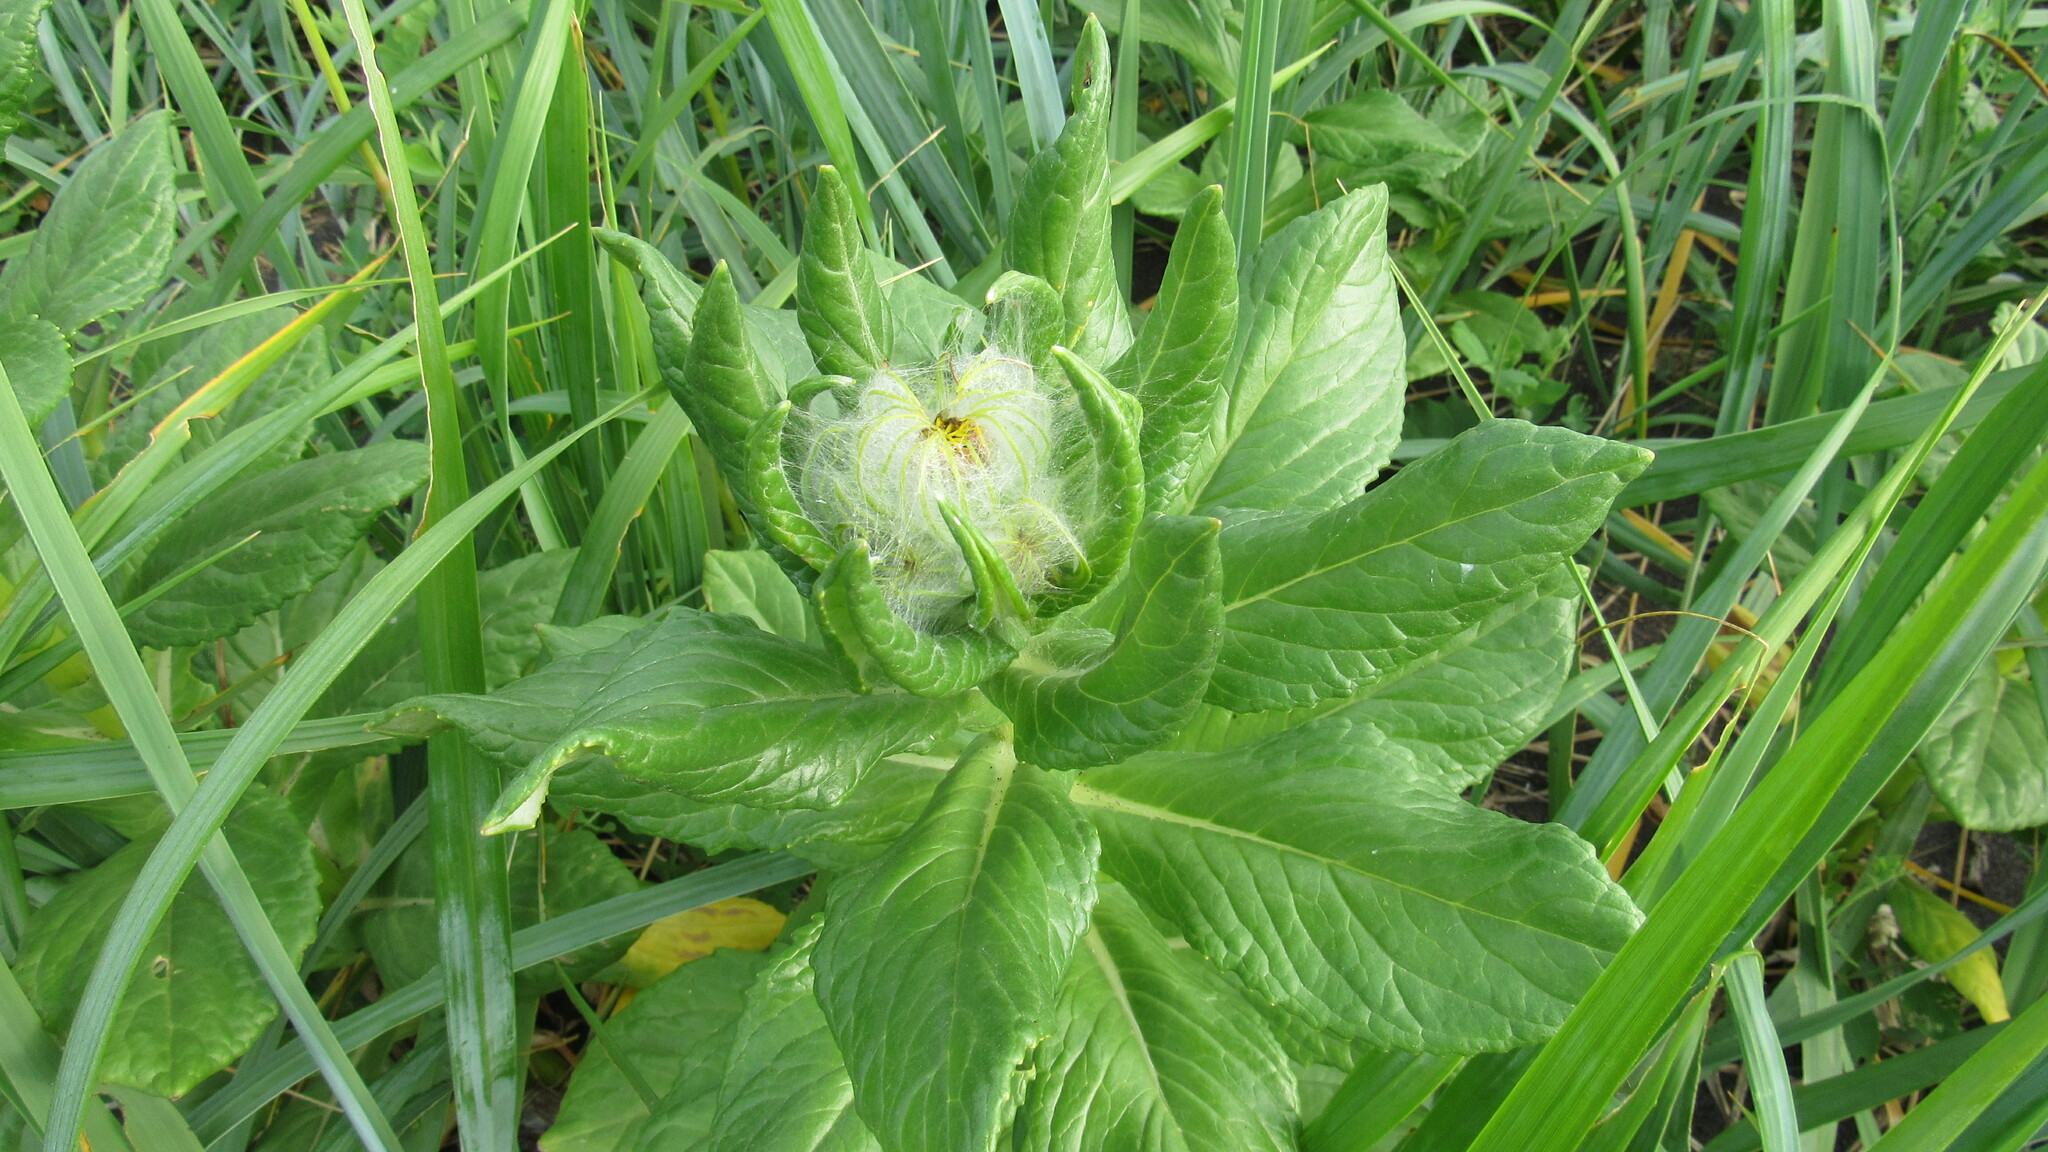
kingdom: Plantae
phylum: Tracheophyta
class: Magnoliopsida
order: Asterales
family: Asteraceae
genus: Jacobaea
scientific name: Jacobaea pseudoarnica
